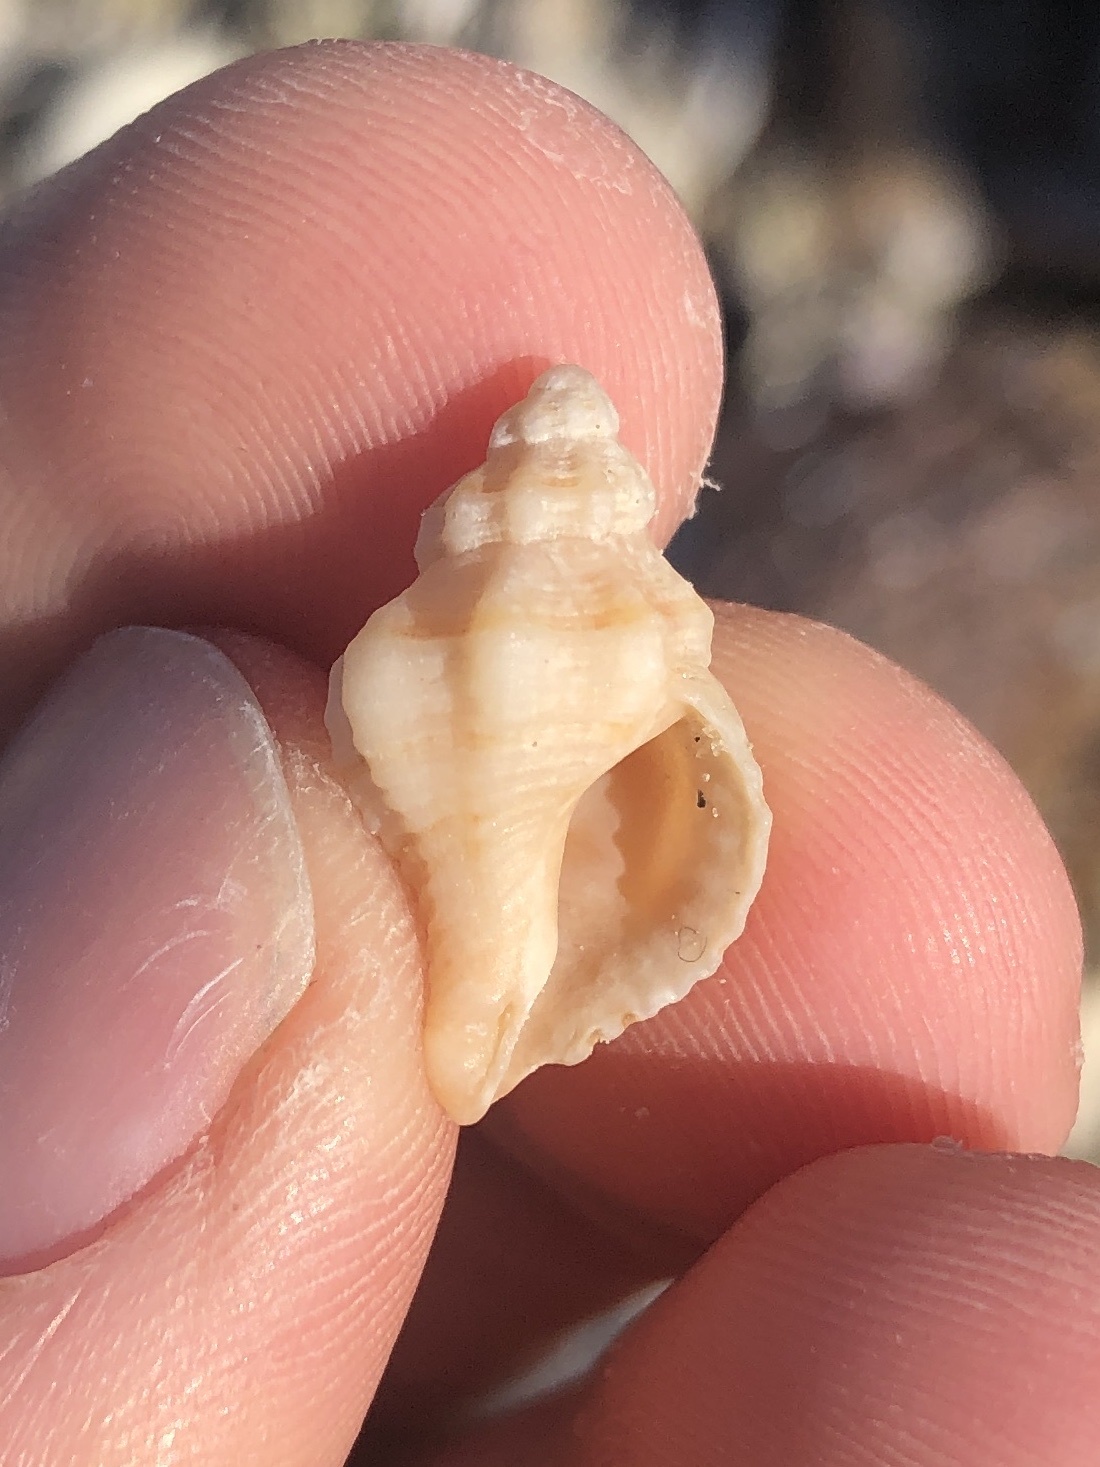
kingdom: Animalia
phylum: Mollusca
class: Gastropoda
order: Neogastropoda
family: Muricidae
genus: Vokesinotus
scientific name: Vokesinotus perrugatus
